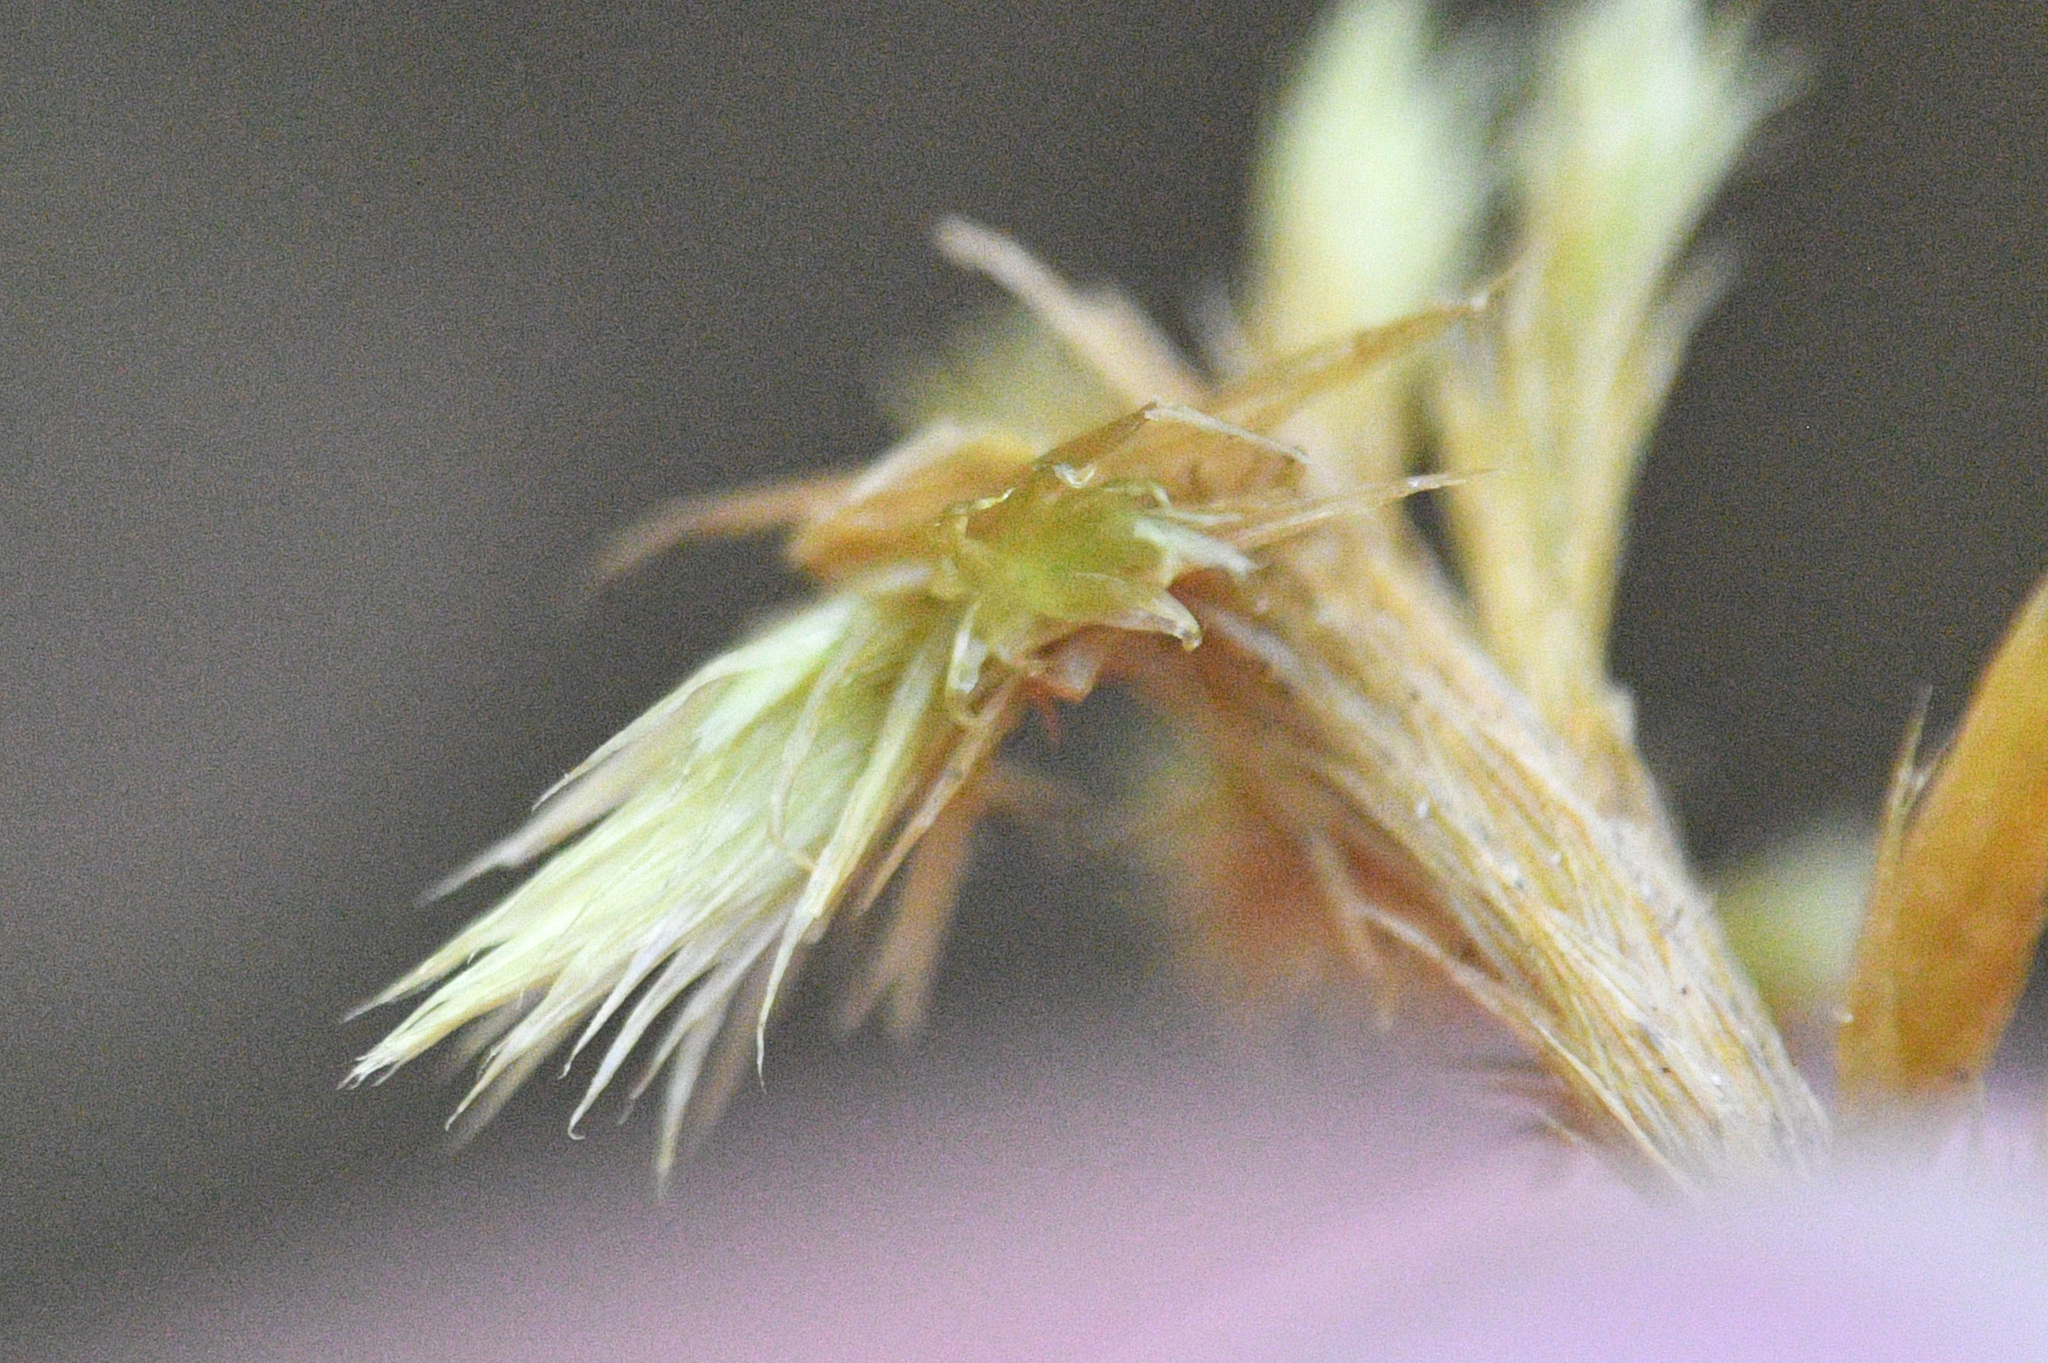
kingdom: Plantae
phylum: Bryophyta
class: Bryopsida
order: Hypnales
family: Amblystegiaceae
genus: Tomentypnum
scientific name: Tomentypnum nitens
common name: Golden fuzzy fen moss
